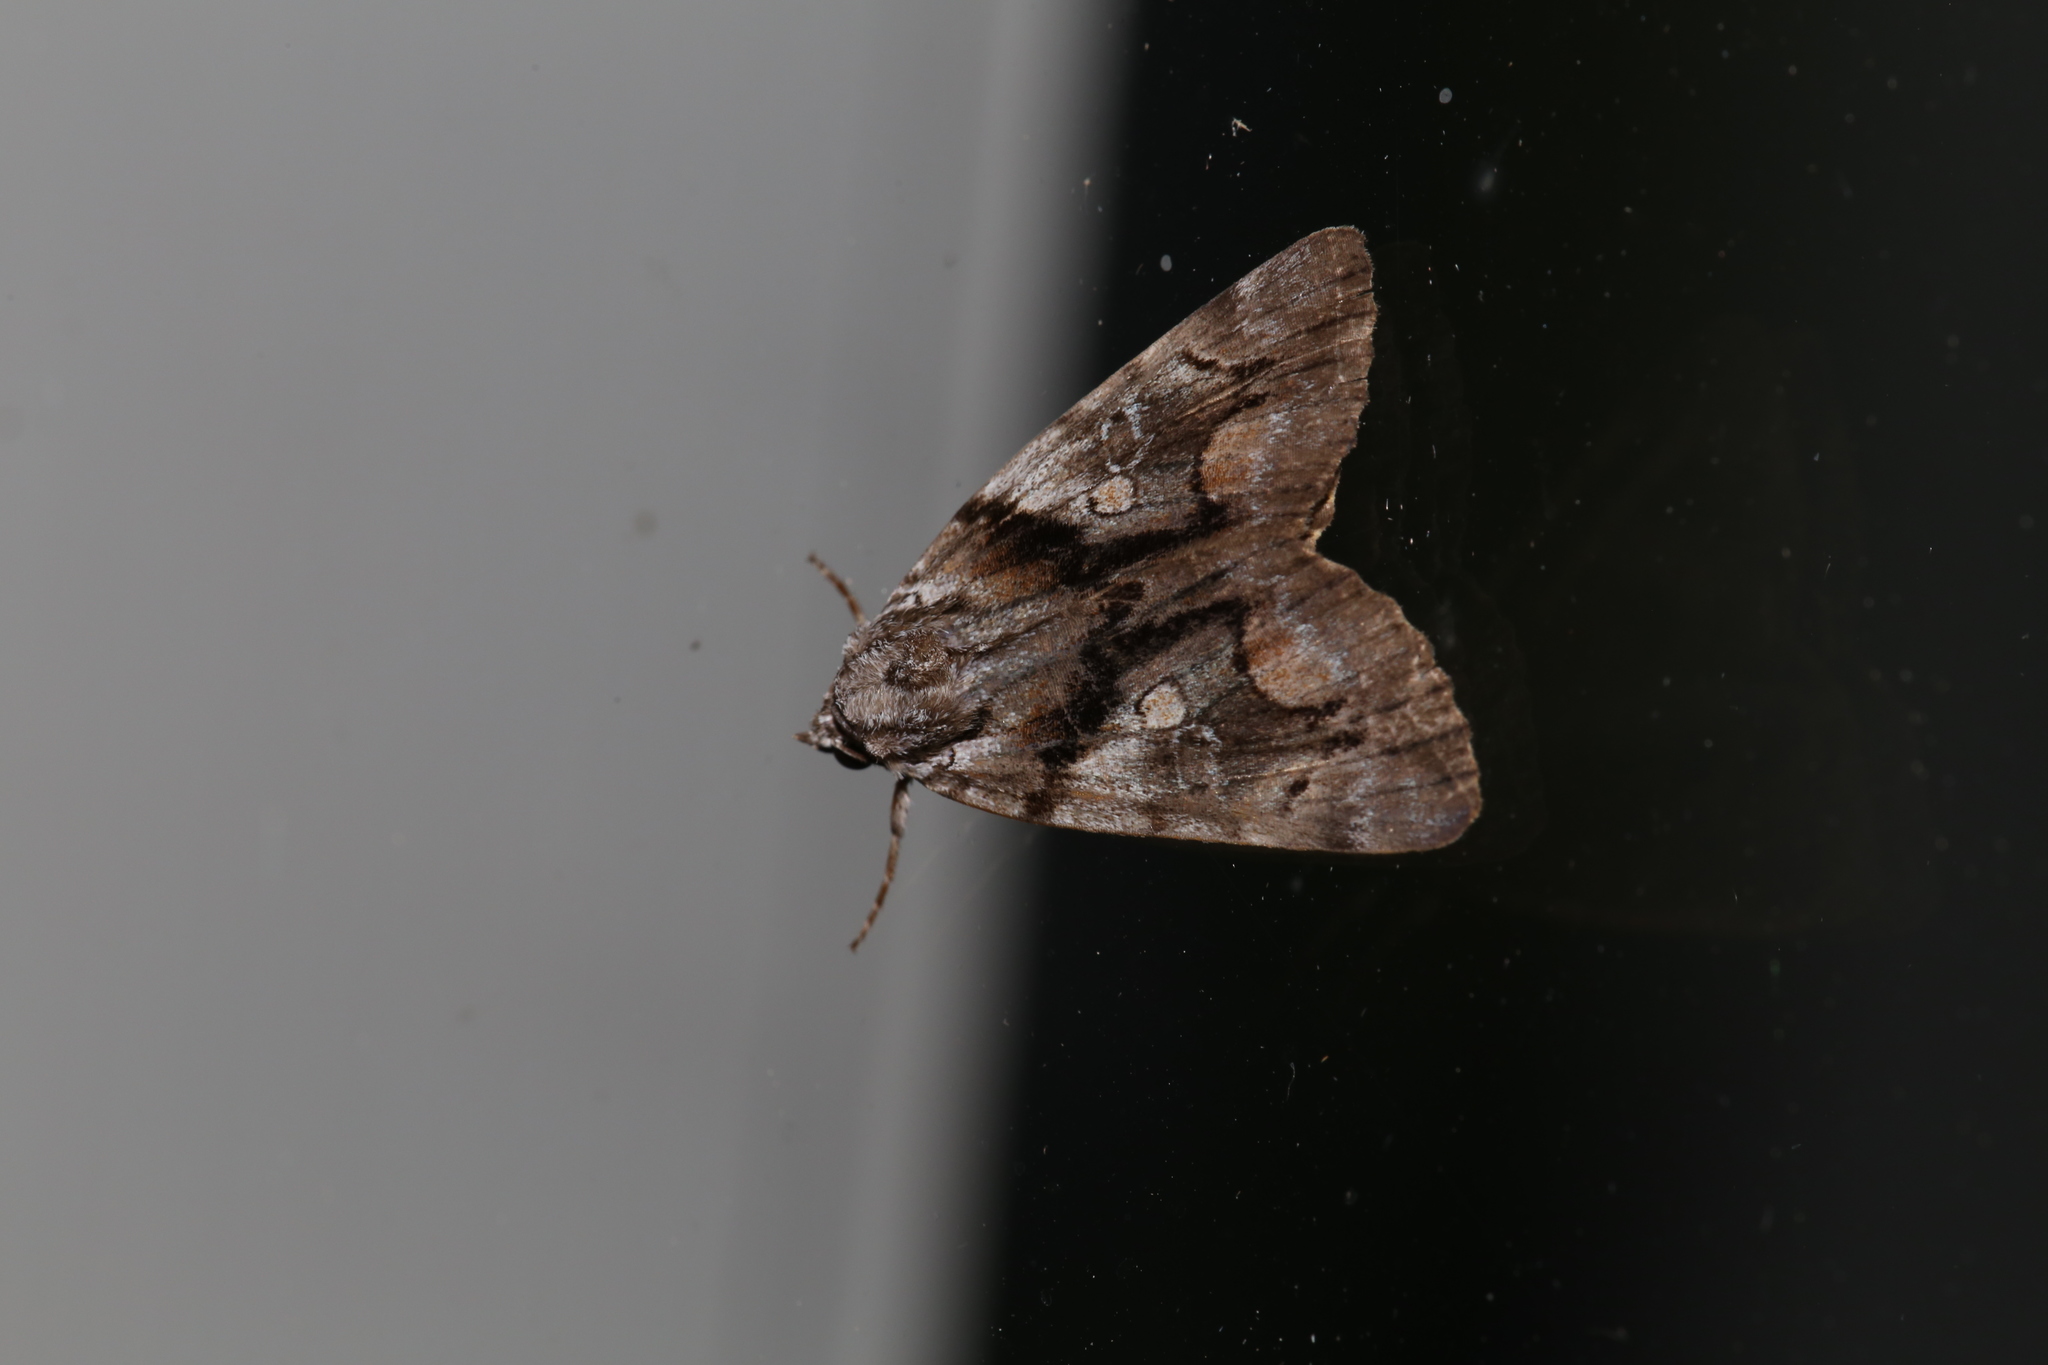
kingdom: Animalia
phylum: Arthropoda
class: Insecta
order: Lepidoptera
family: Erebidae
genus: Catocala
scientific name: Catocala blandula
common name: Charming underwing
